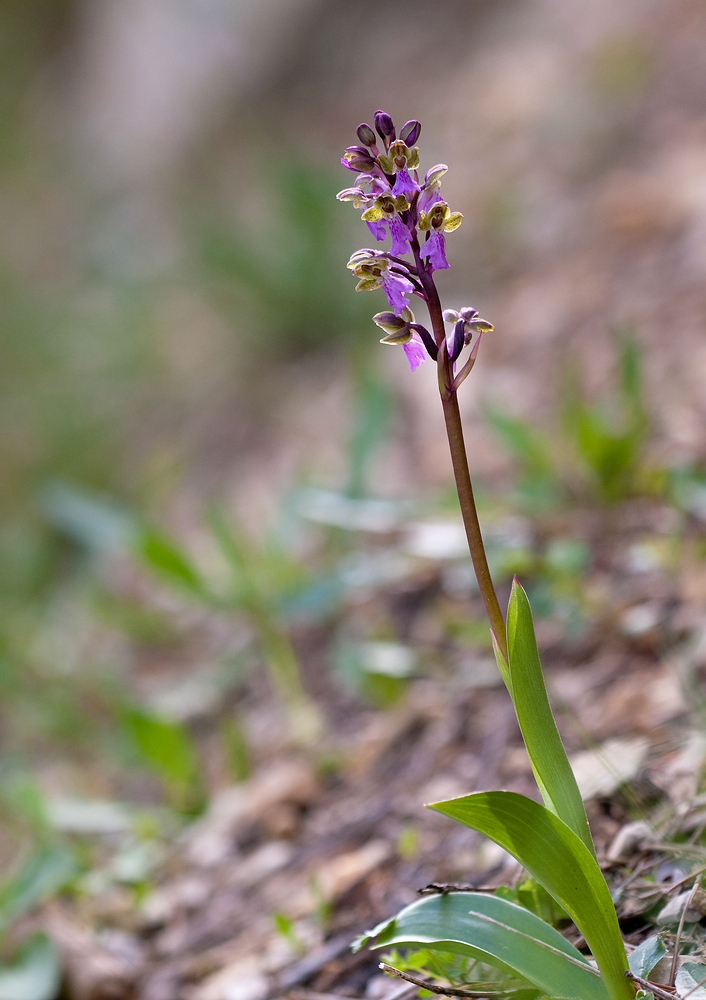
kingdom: Plantae
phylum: Tracheophyta
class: Liliopsida
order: Asparagales
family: Orchidaceae
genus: Orchis
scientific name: Orchis spitzelii
